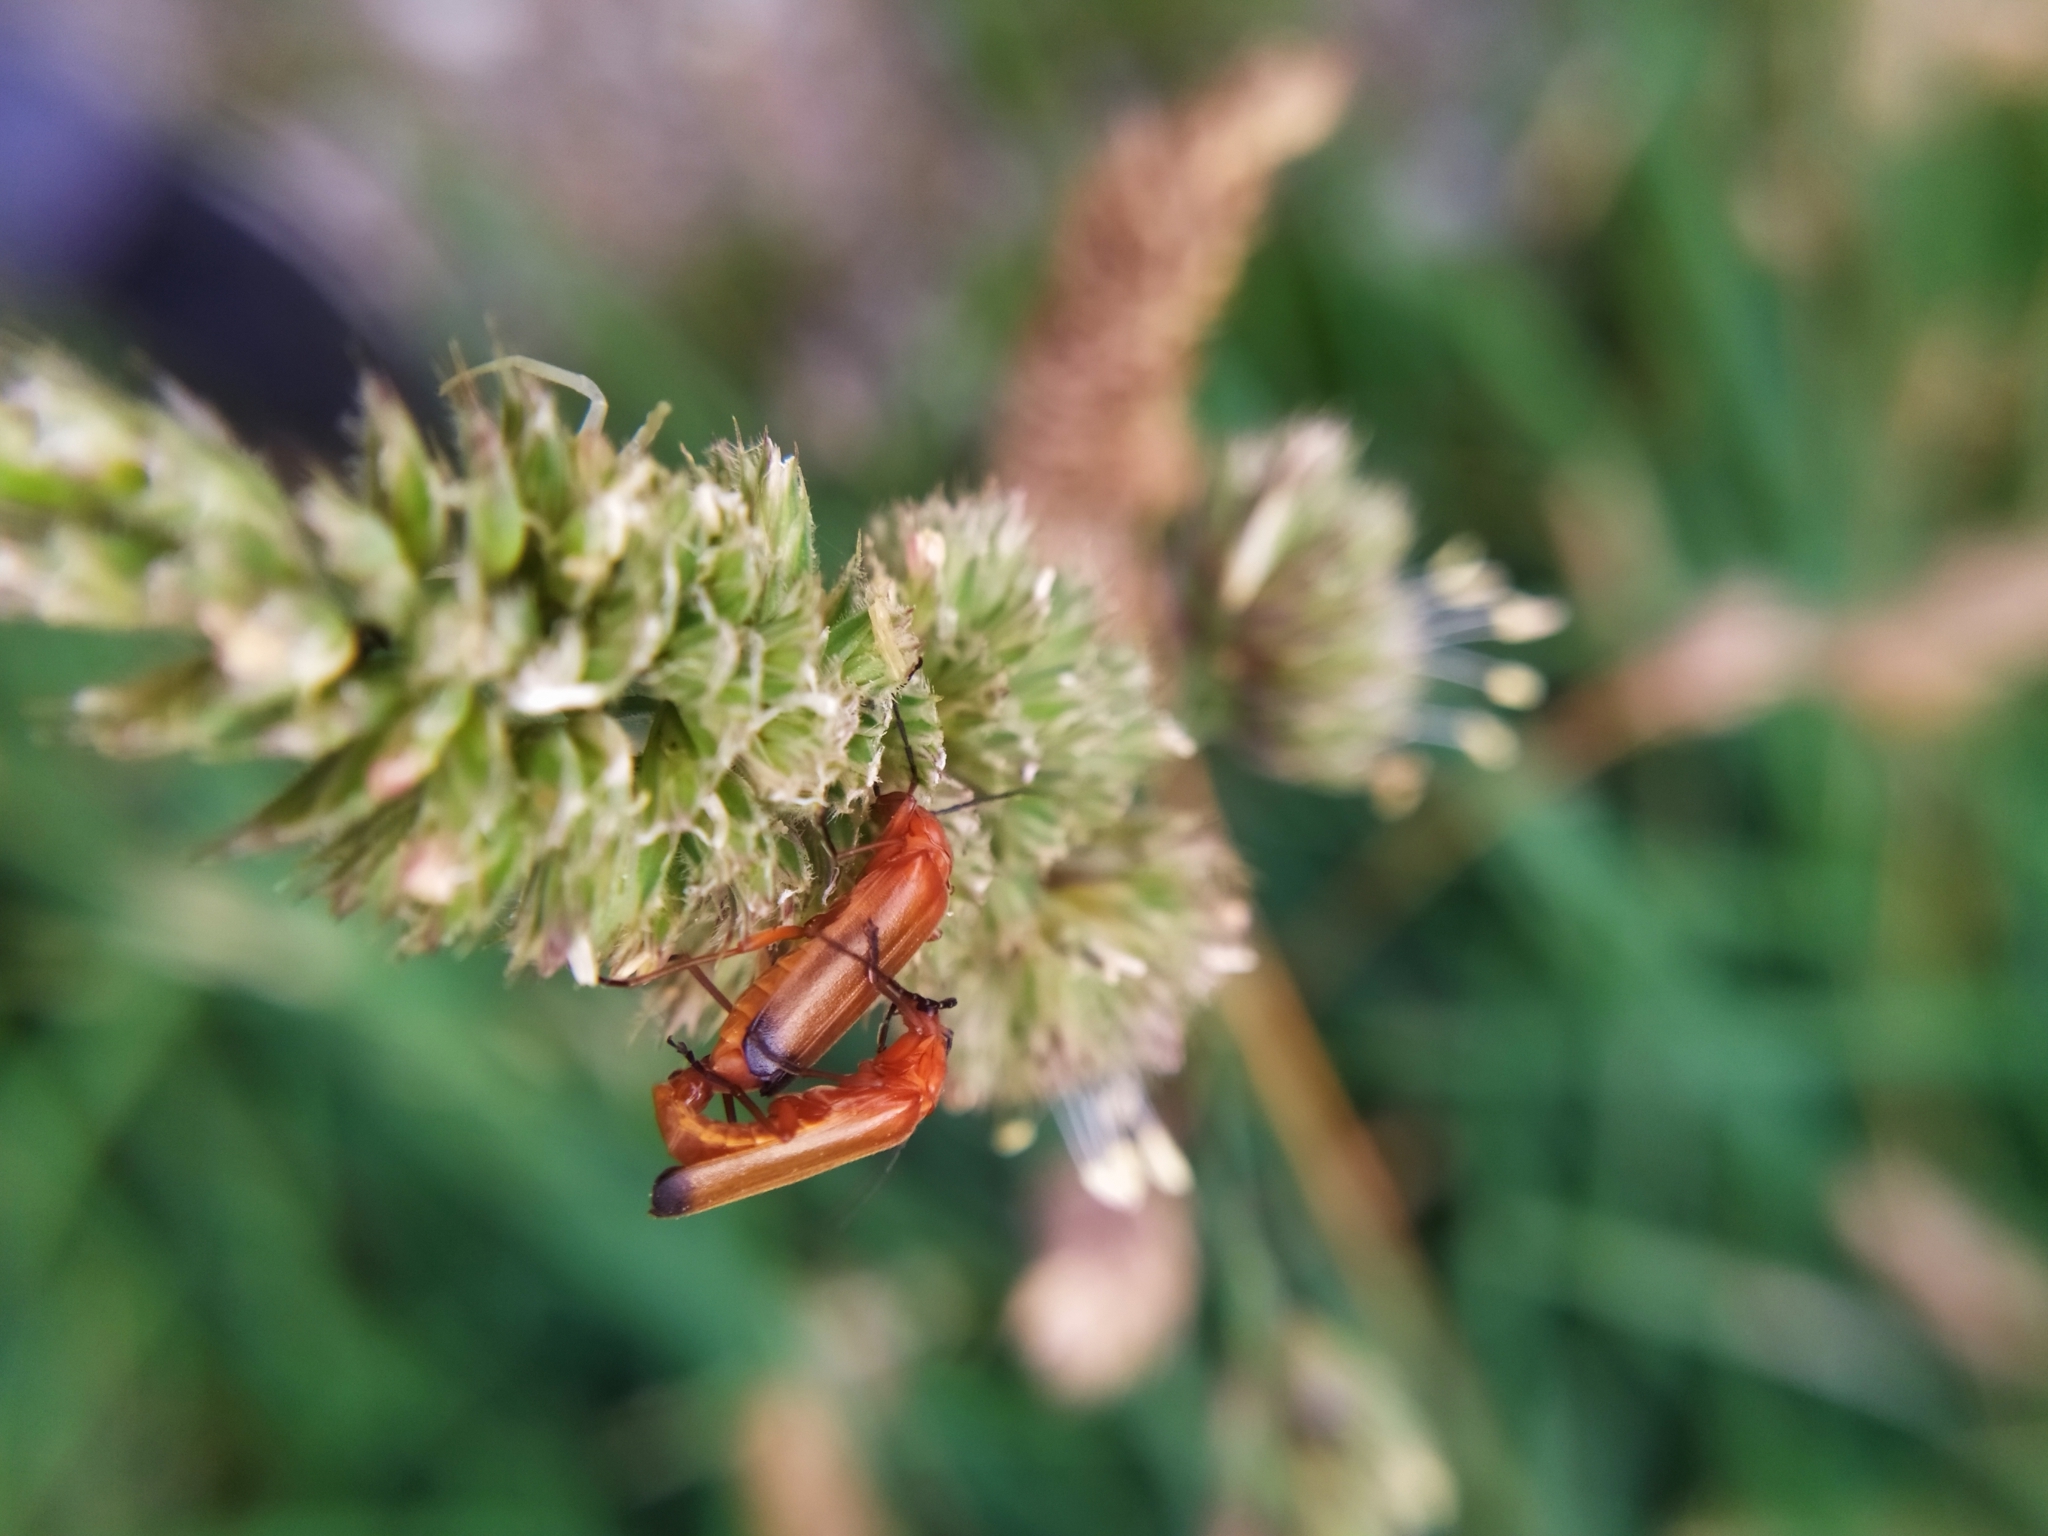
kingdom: Animalia
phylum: Arthropoda
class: Insecta
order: Coleoptera
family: Cantharidae
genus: Rhagonycha
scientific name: Rhagonycha fulva
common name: Common red soldier beetle
